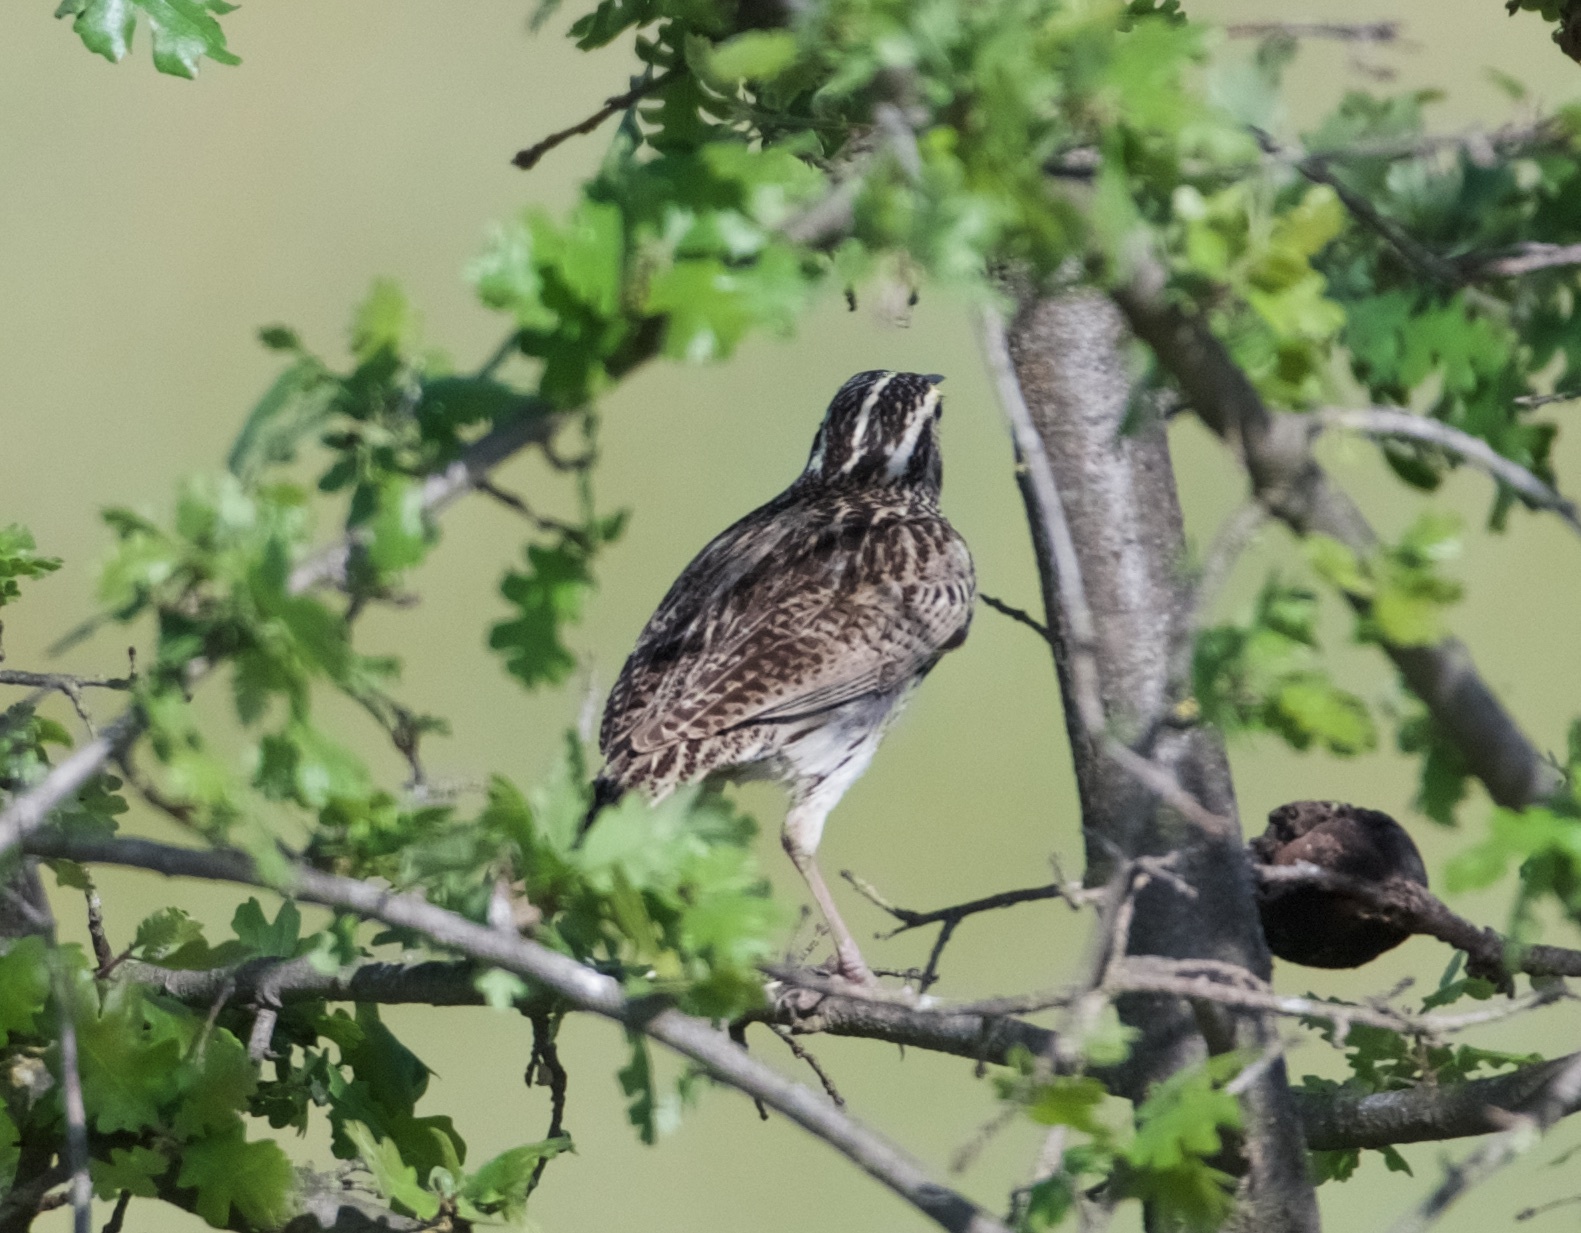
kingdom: Animalia
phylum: Chordata
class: Aves
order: Passeriformes
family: Icteridae
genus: Sturnella
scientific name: Sturnella neglecta
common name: Western meadowlark
